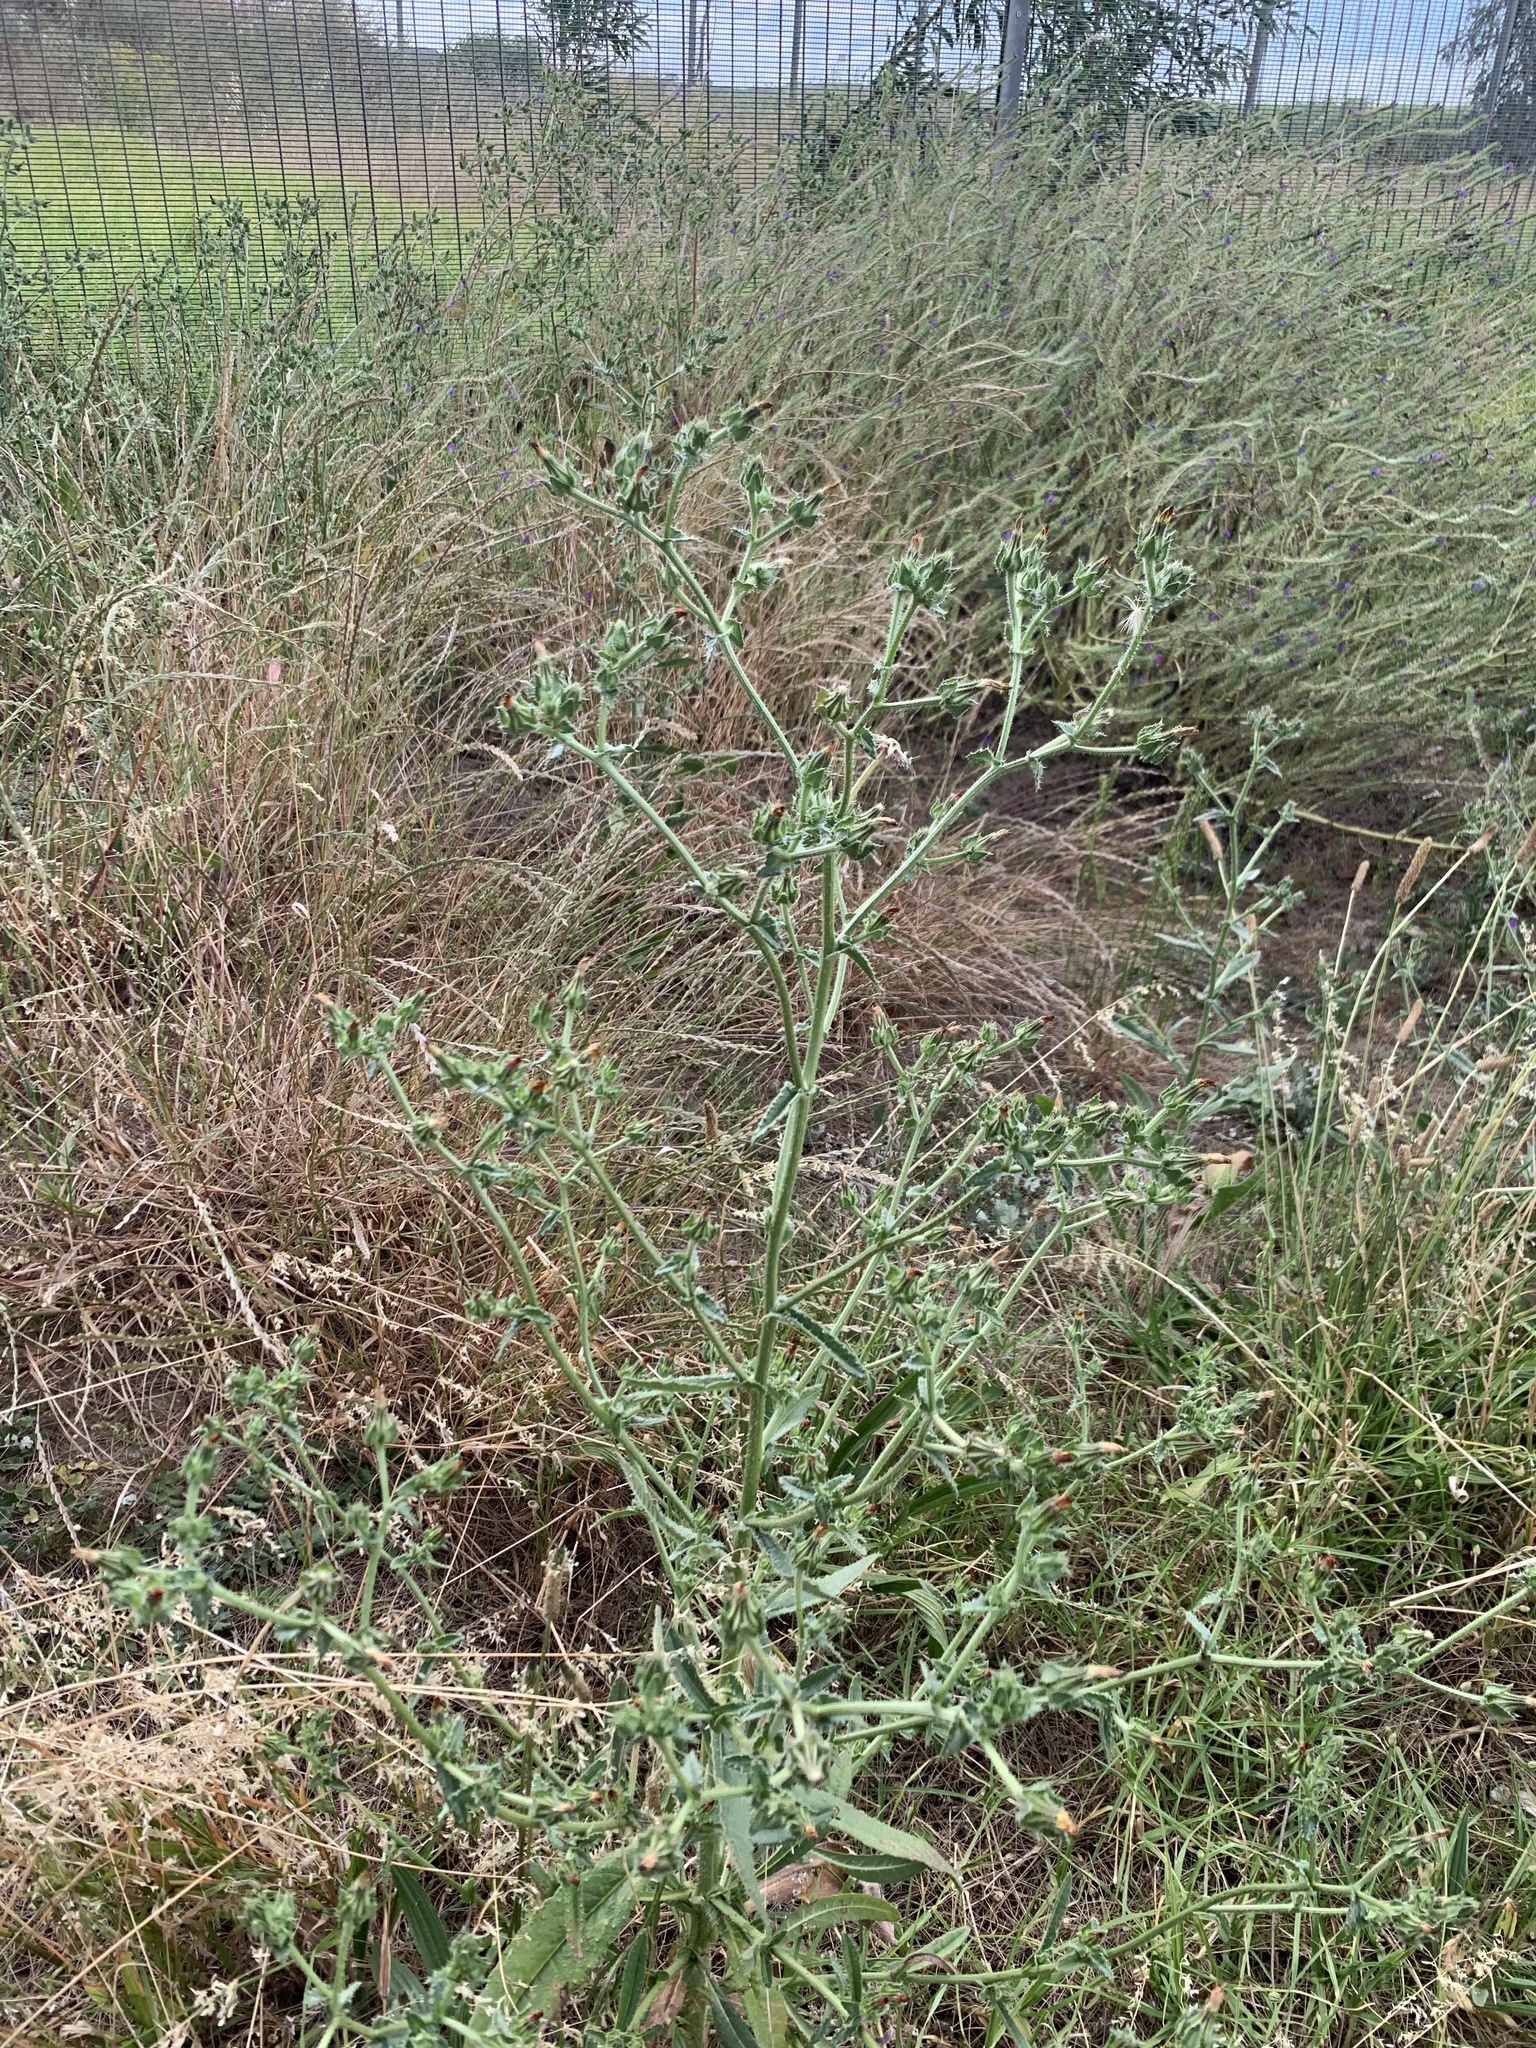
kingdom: Plantae
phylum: Tracheophyta
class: Magnoliopsida
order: Asterales
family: Asteraceae
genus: Helminthotheca
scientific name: Helminthotheca echioides
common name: Ox-tongue
